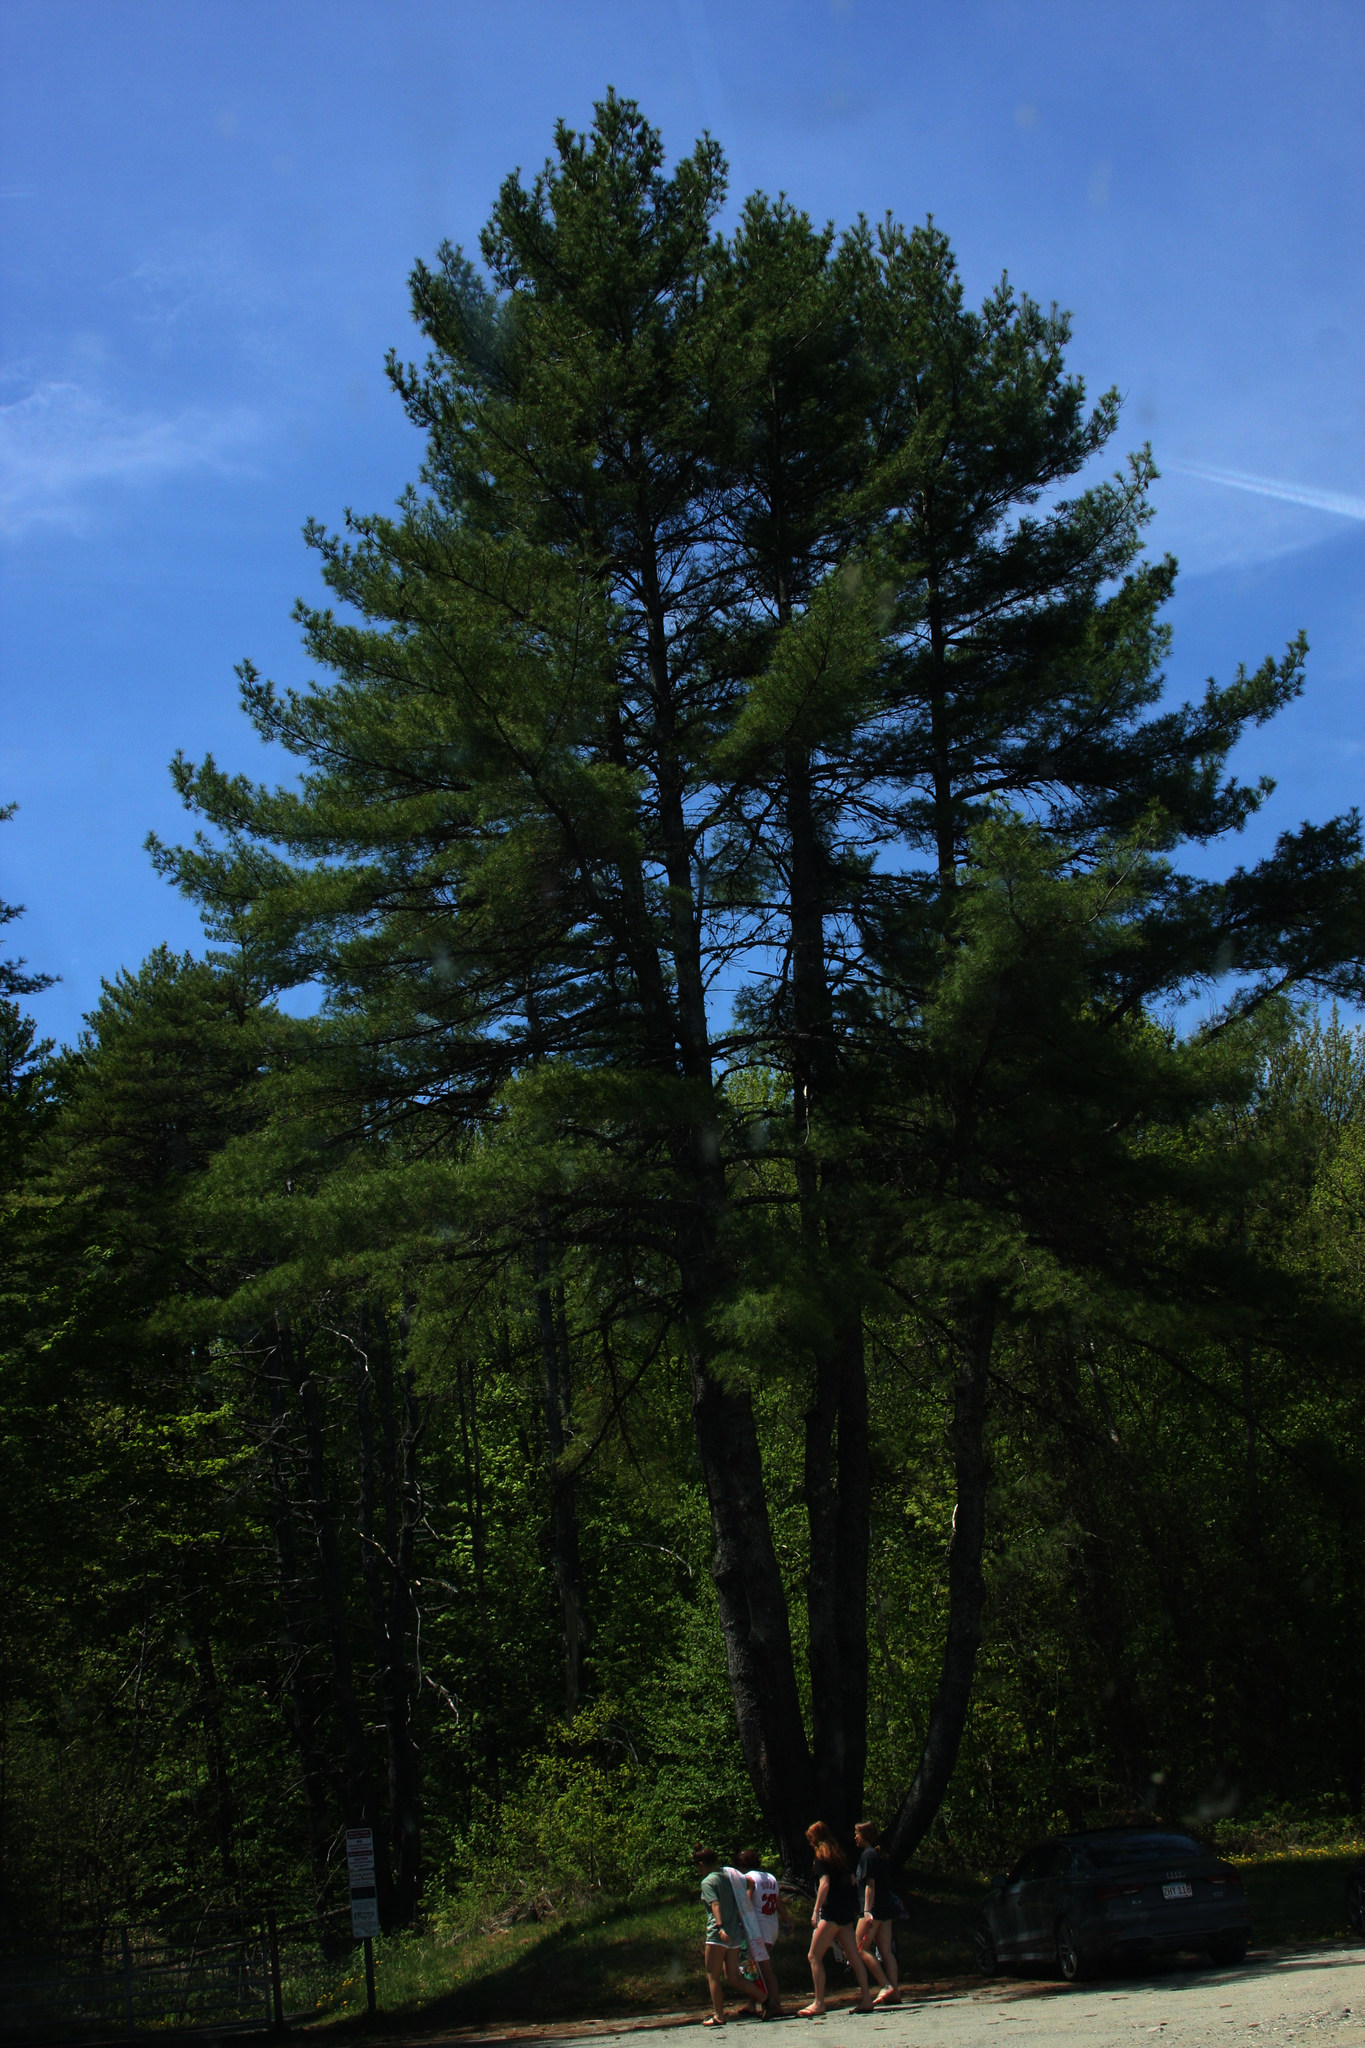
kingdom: Plantae
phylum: Tracheophyta
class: Pinopsida
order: Pinales
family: Pinaceae
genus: Pinus
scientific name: Pinus strobus
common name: Weymouth pine
